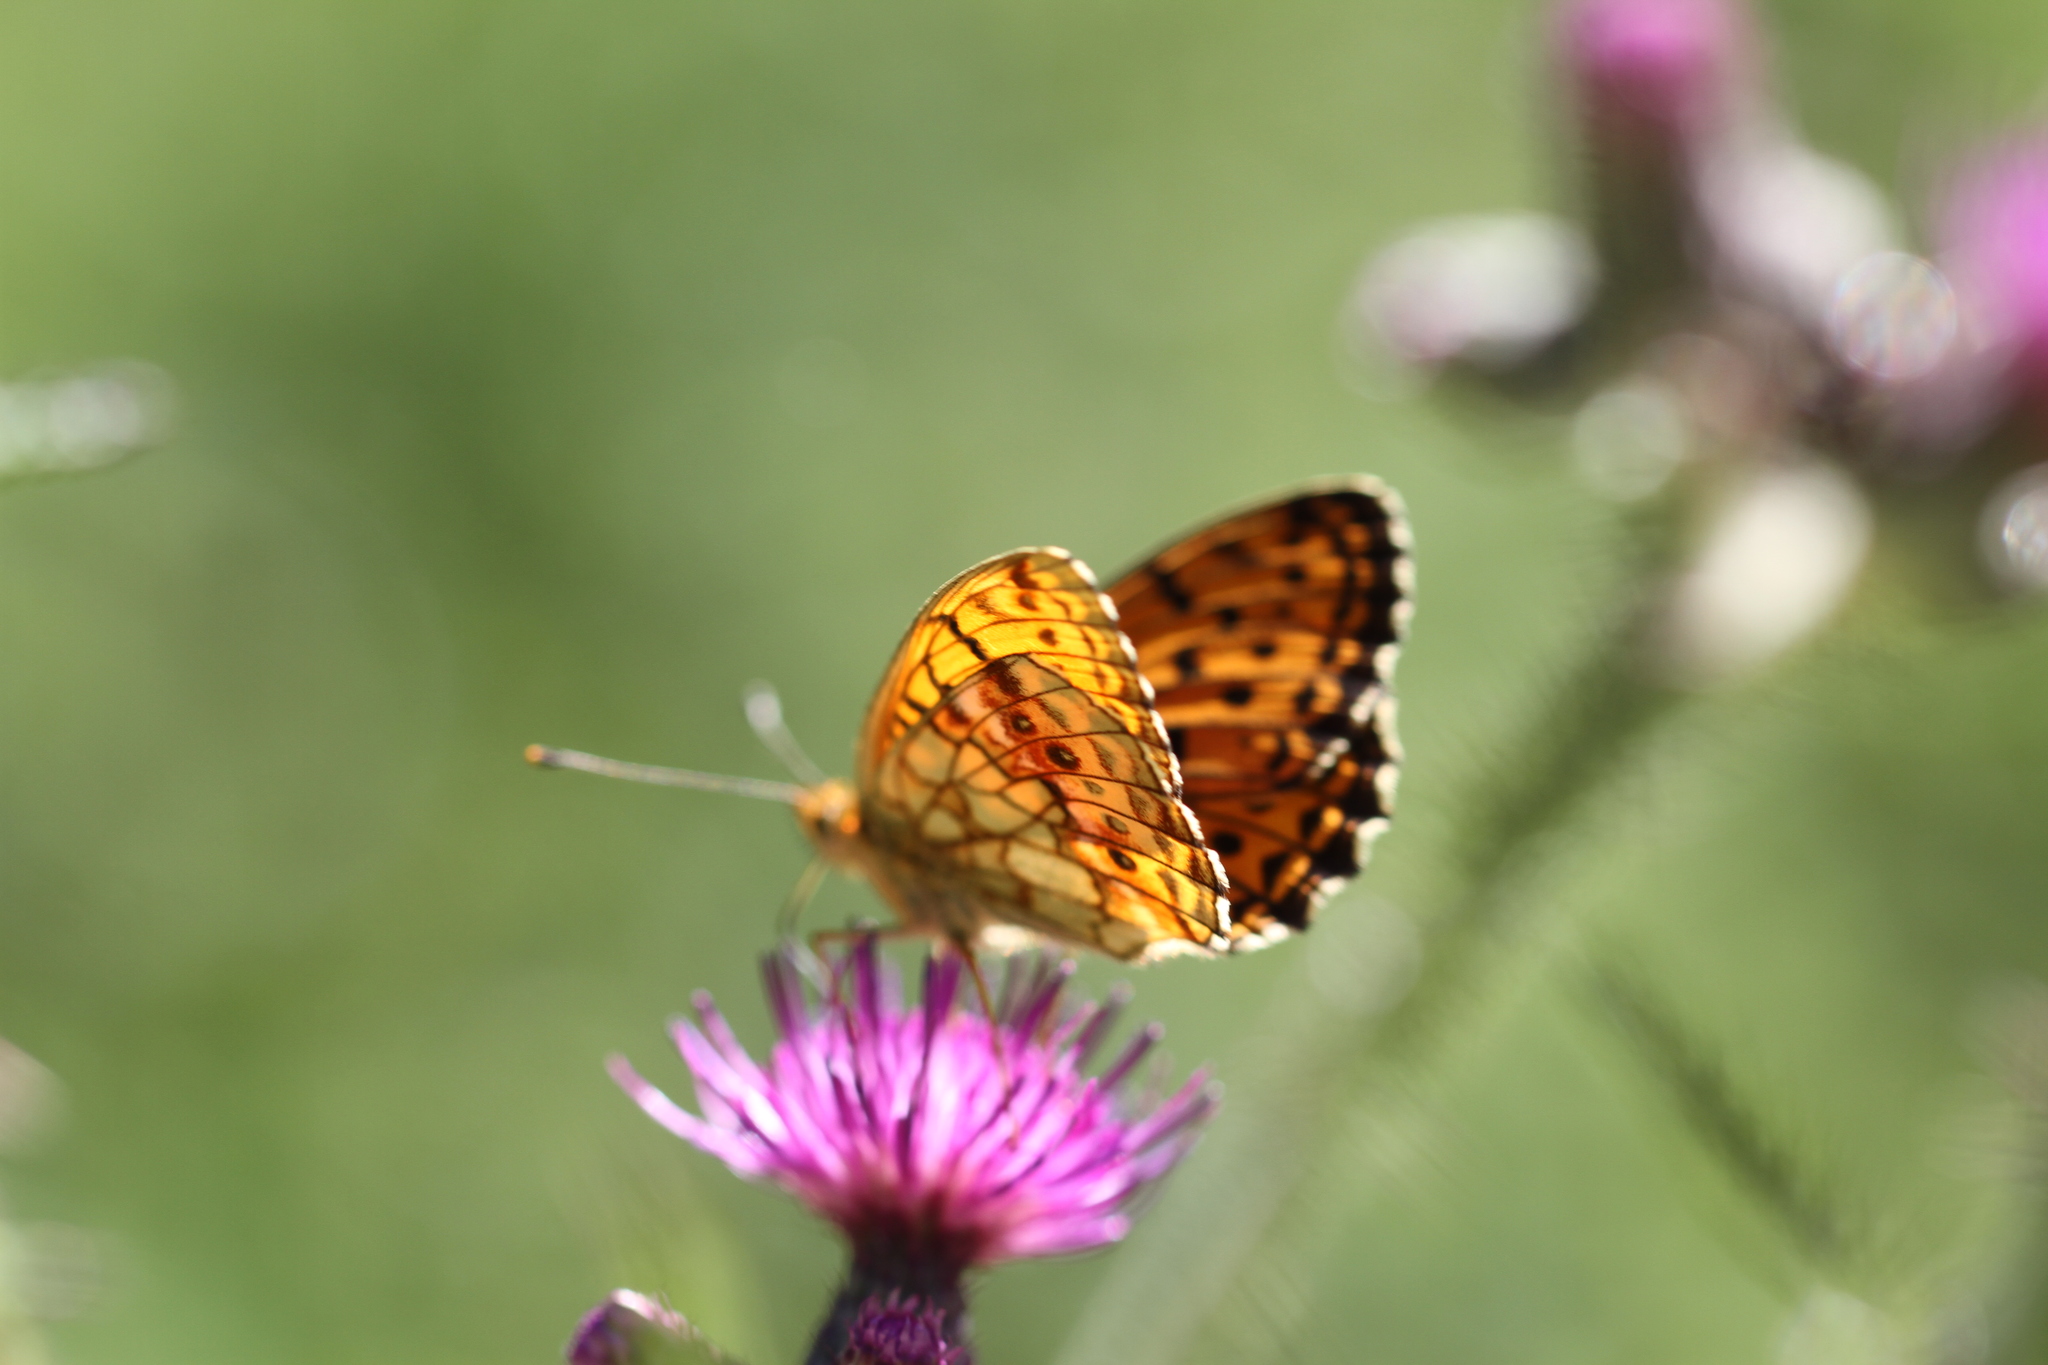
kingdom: Animalia
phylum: Arthropoda
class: Insecta
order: Lepidoptera
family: Nymphalidae
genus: Brenthis
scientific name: Brenthis ino
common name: Lesser marbled fritillary
